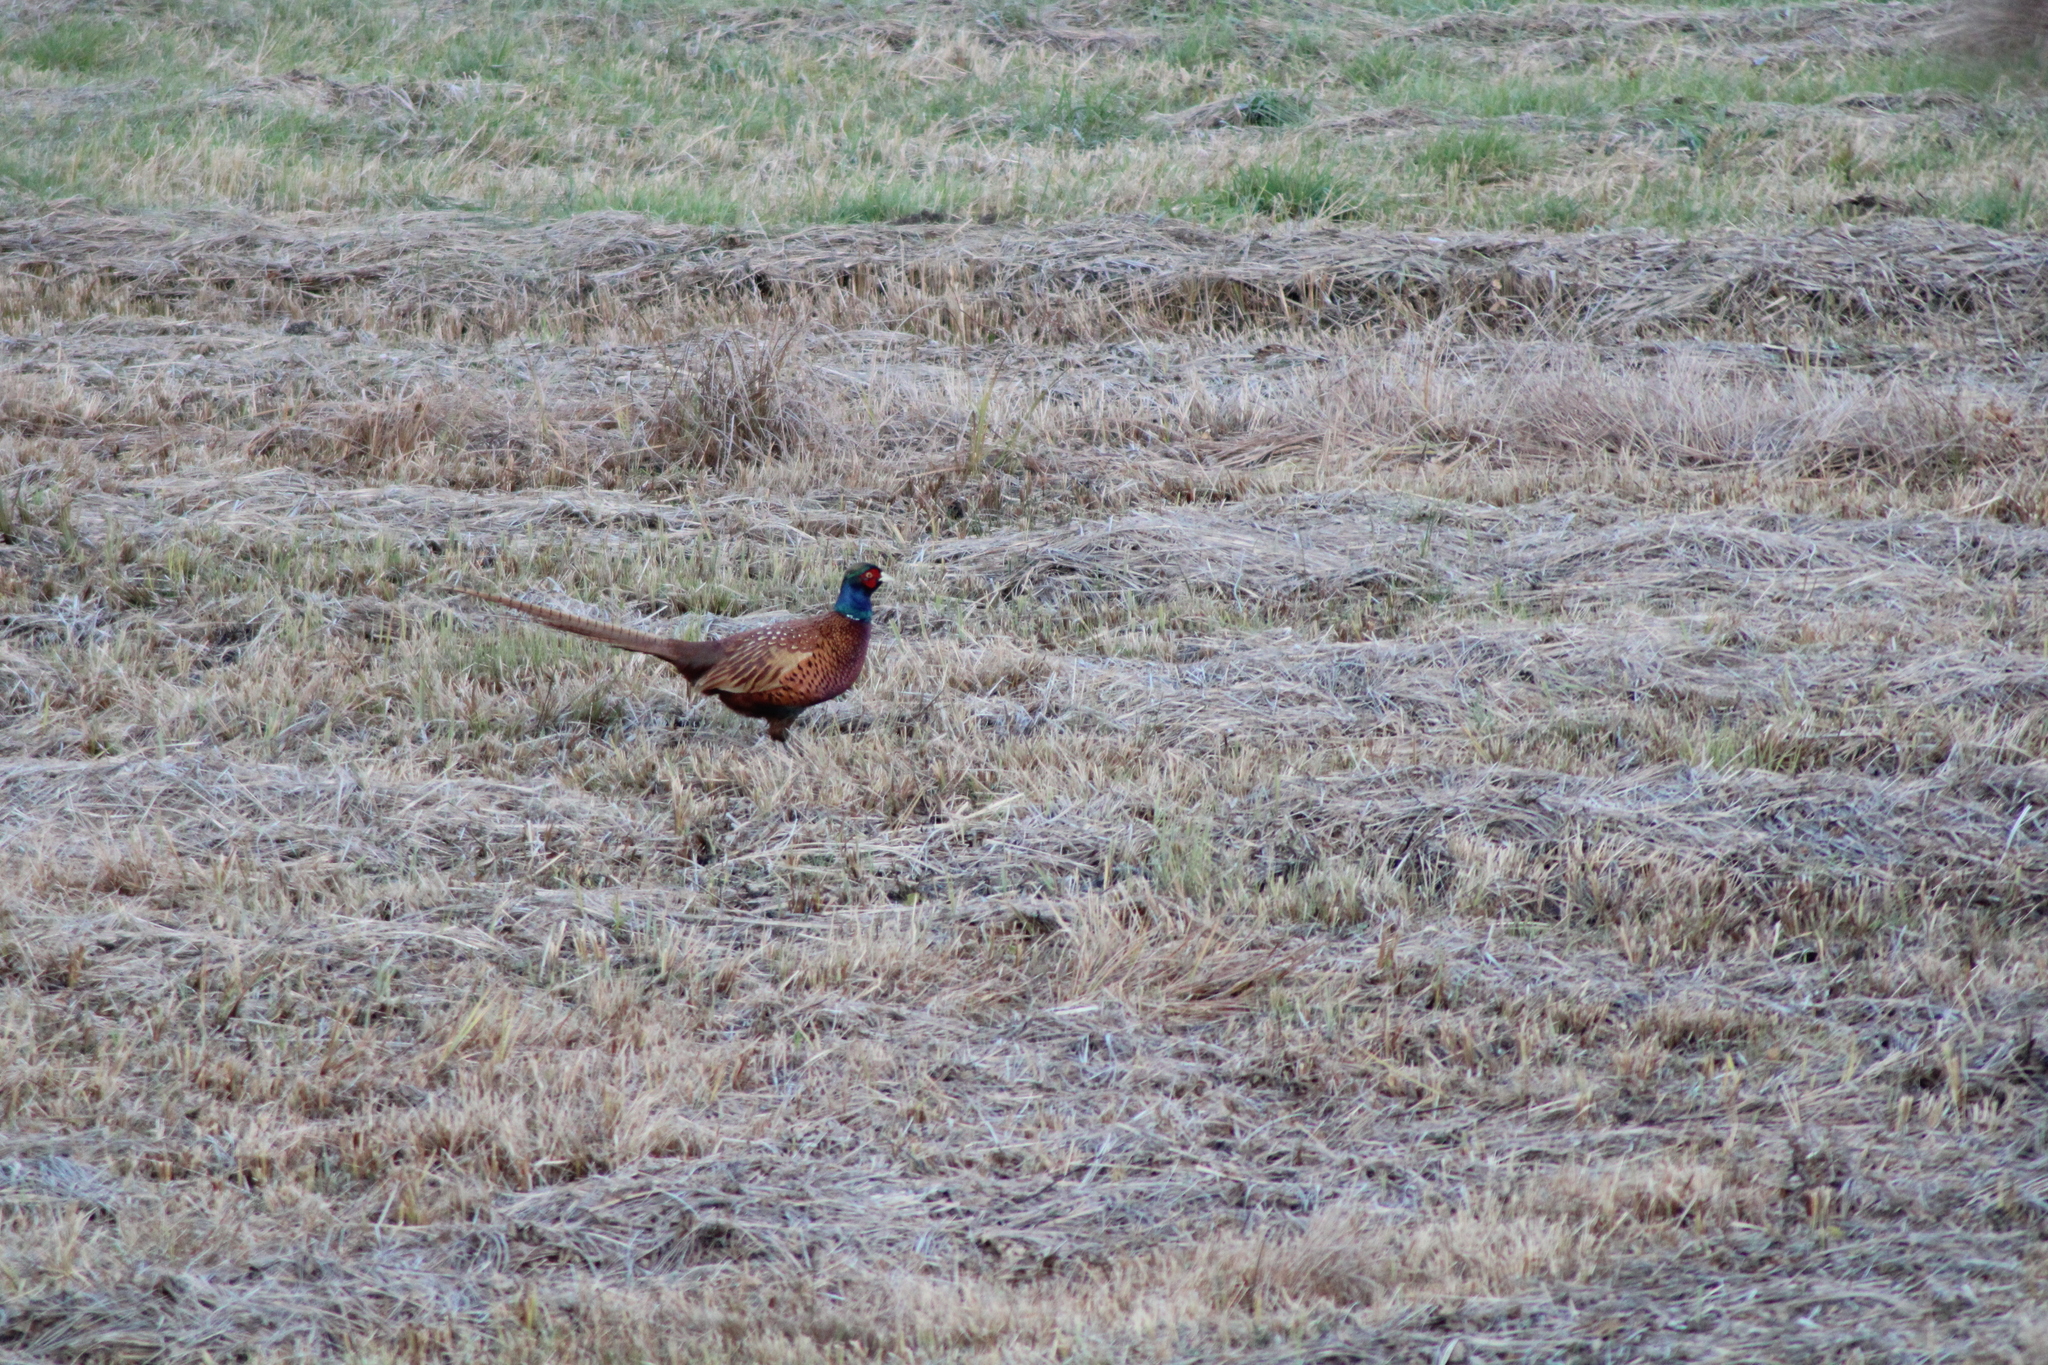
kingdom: Animalia
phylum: Chordata
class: Aves
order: Galliformes
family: Phasianidae
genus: Phasianus
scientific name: Phasianus colchicus
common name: Common pheasant
